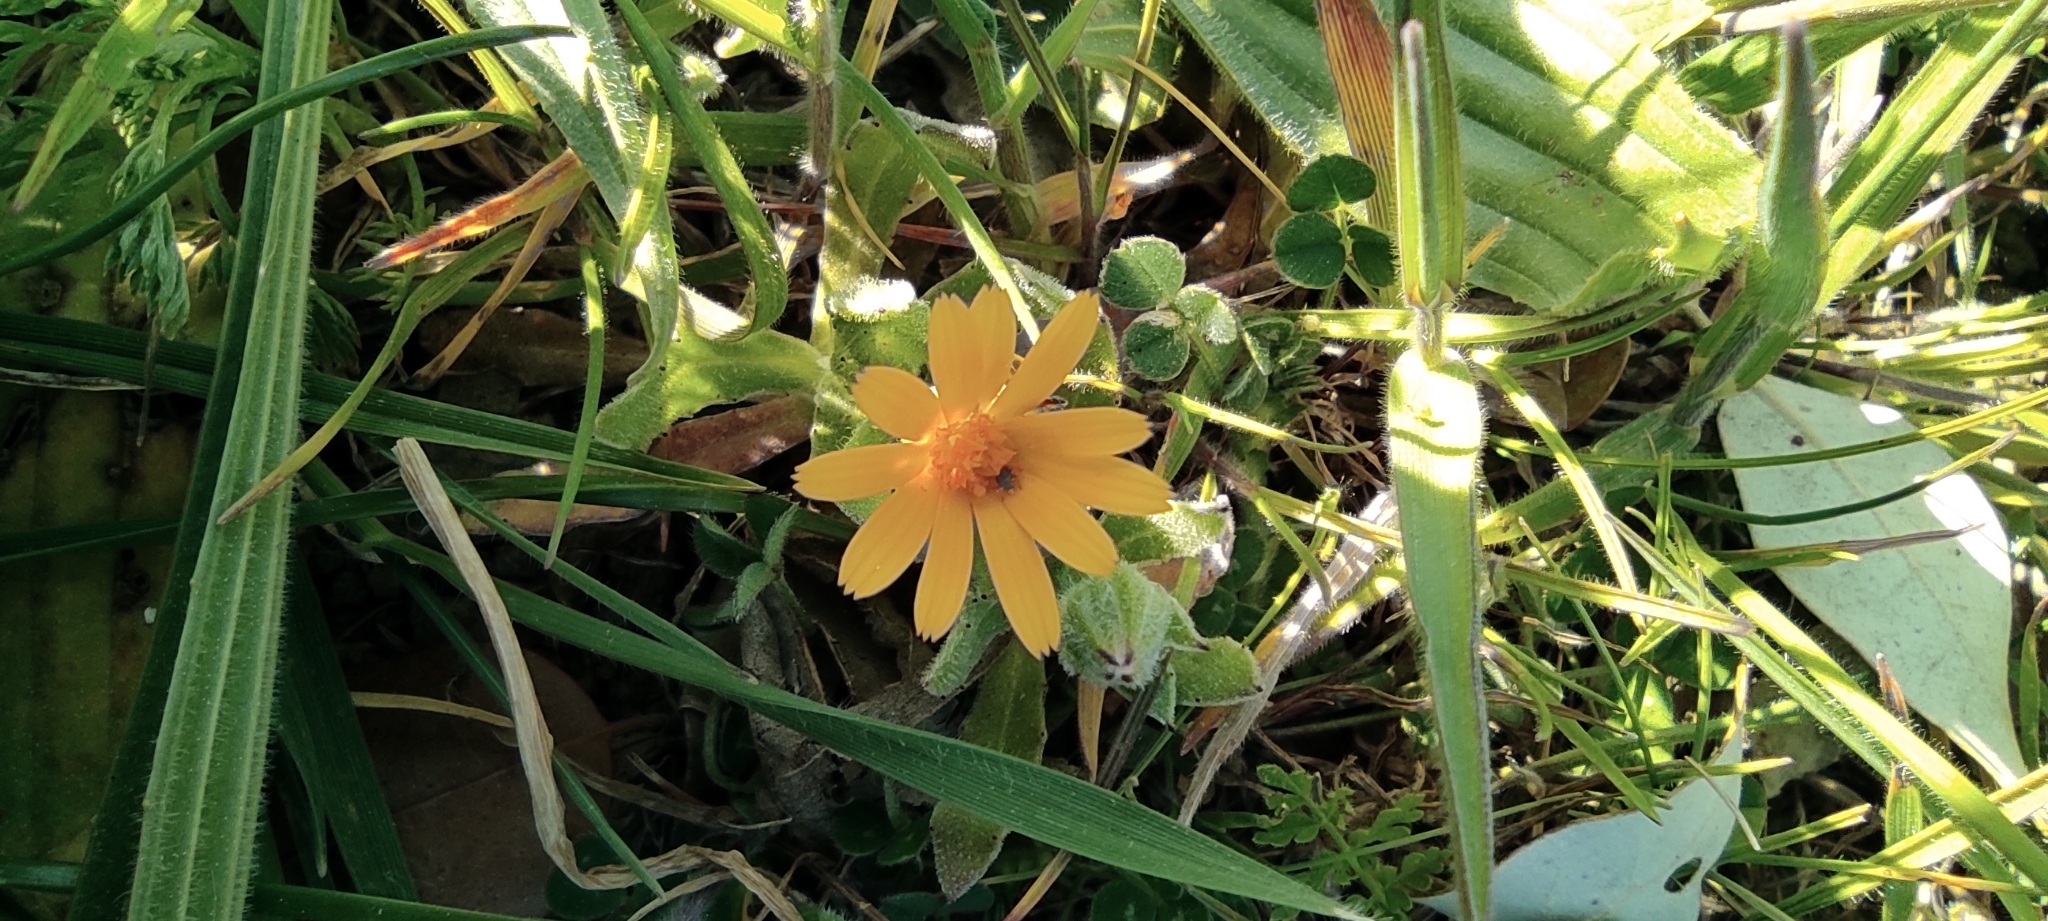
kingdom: Plantae
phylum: Tracheophyta
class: Magnoliopsida
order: Asterales
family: Asteraceae
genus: Calendula
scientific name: Calendula arvensis
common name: Field marigold
